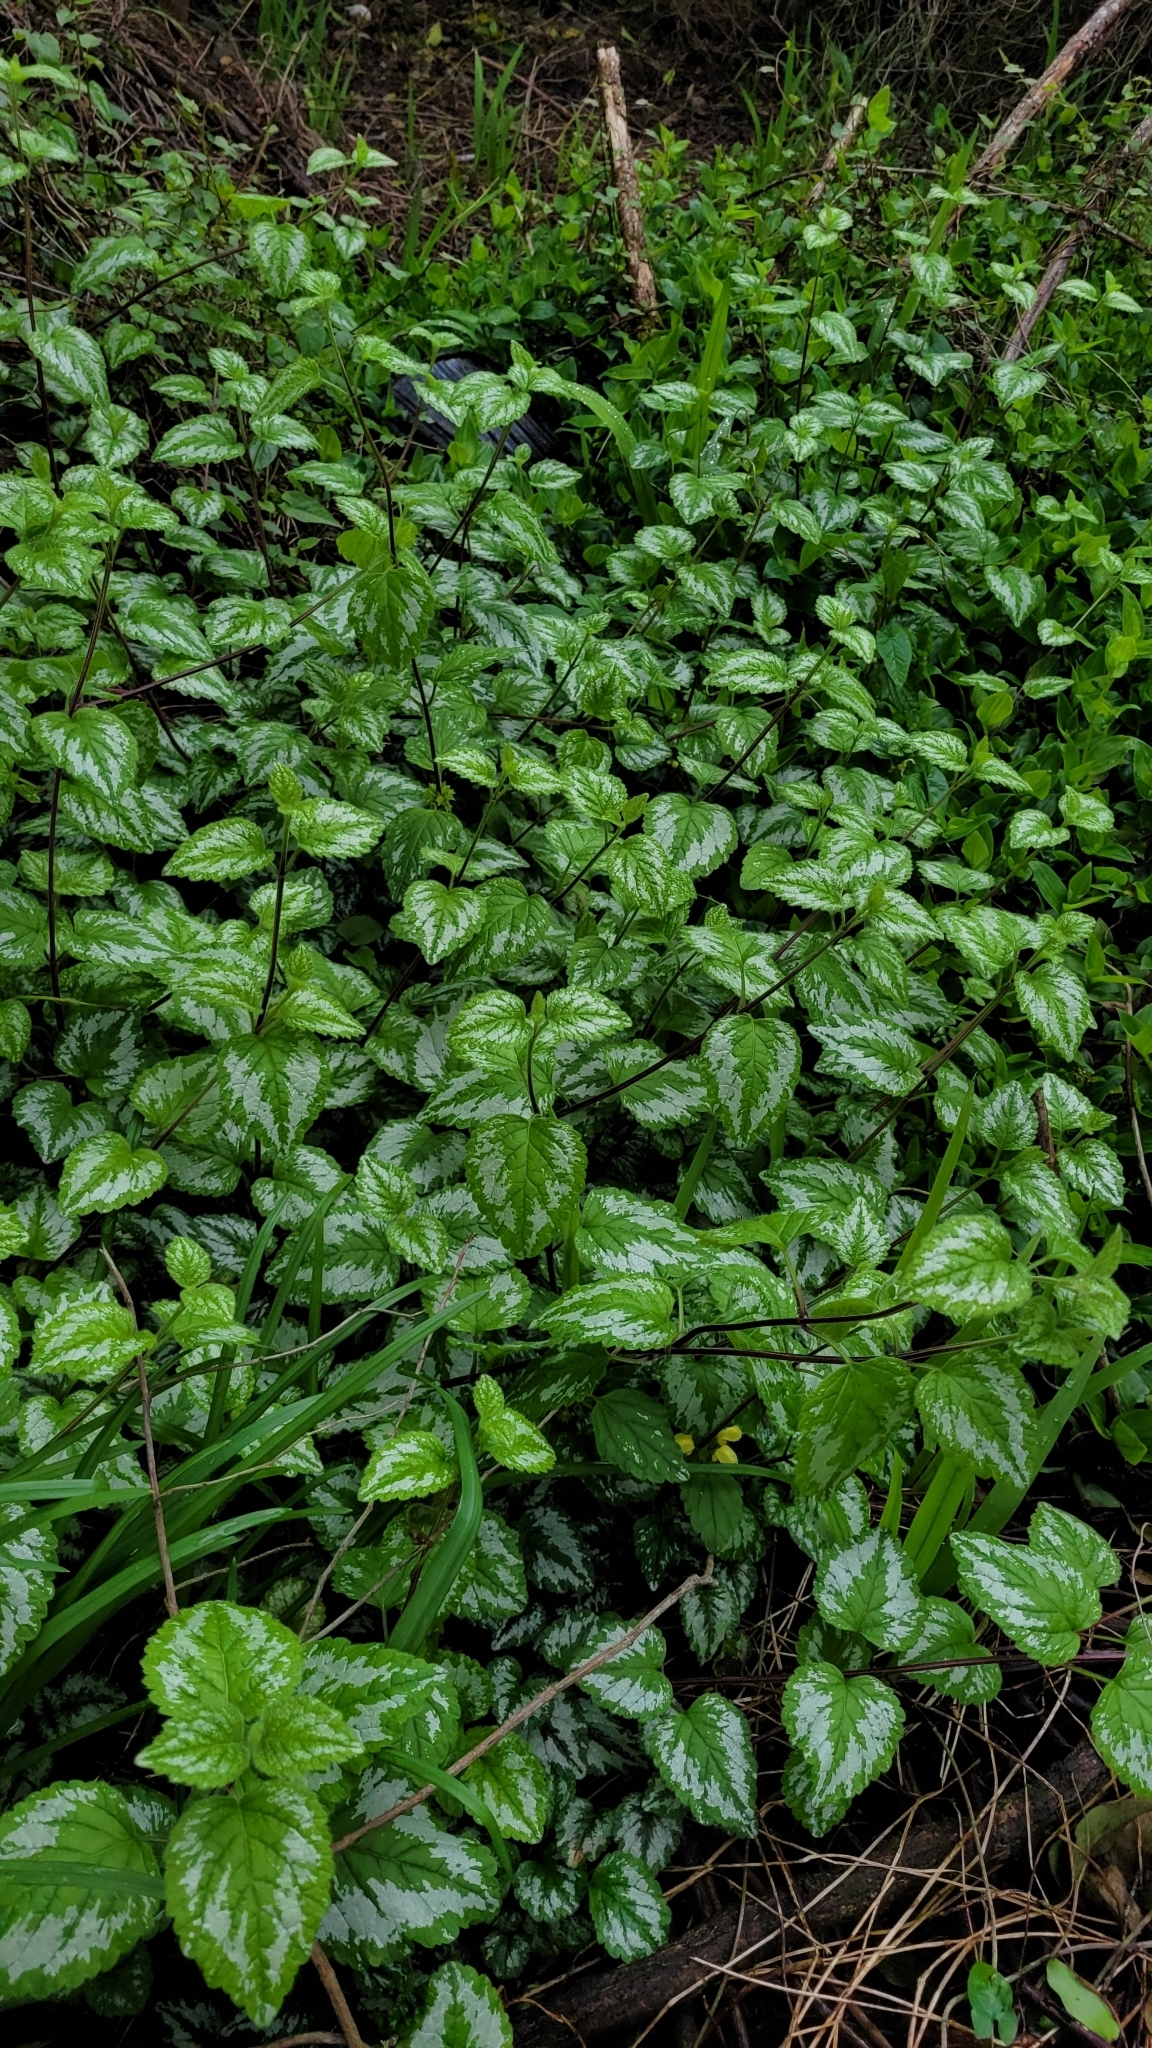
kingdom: Plantae
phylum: Tracheophyta
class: Magnoliopsida
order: Lamiales
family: Lamiaceae
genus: Lamium
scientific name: Lamium galeobdolon
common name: Yellow archangel
